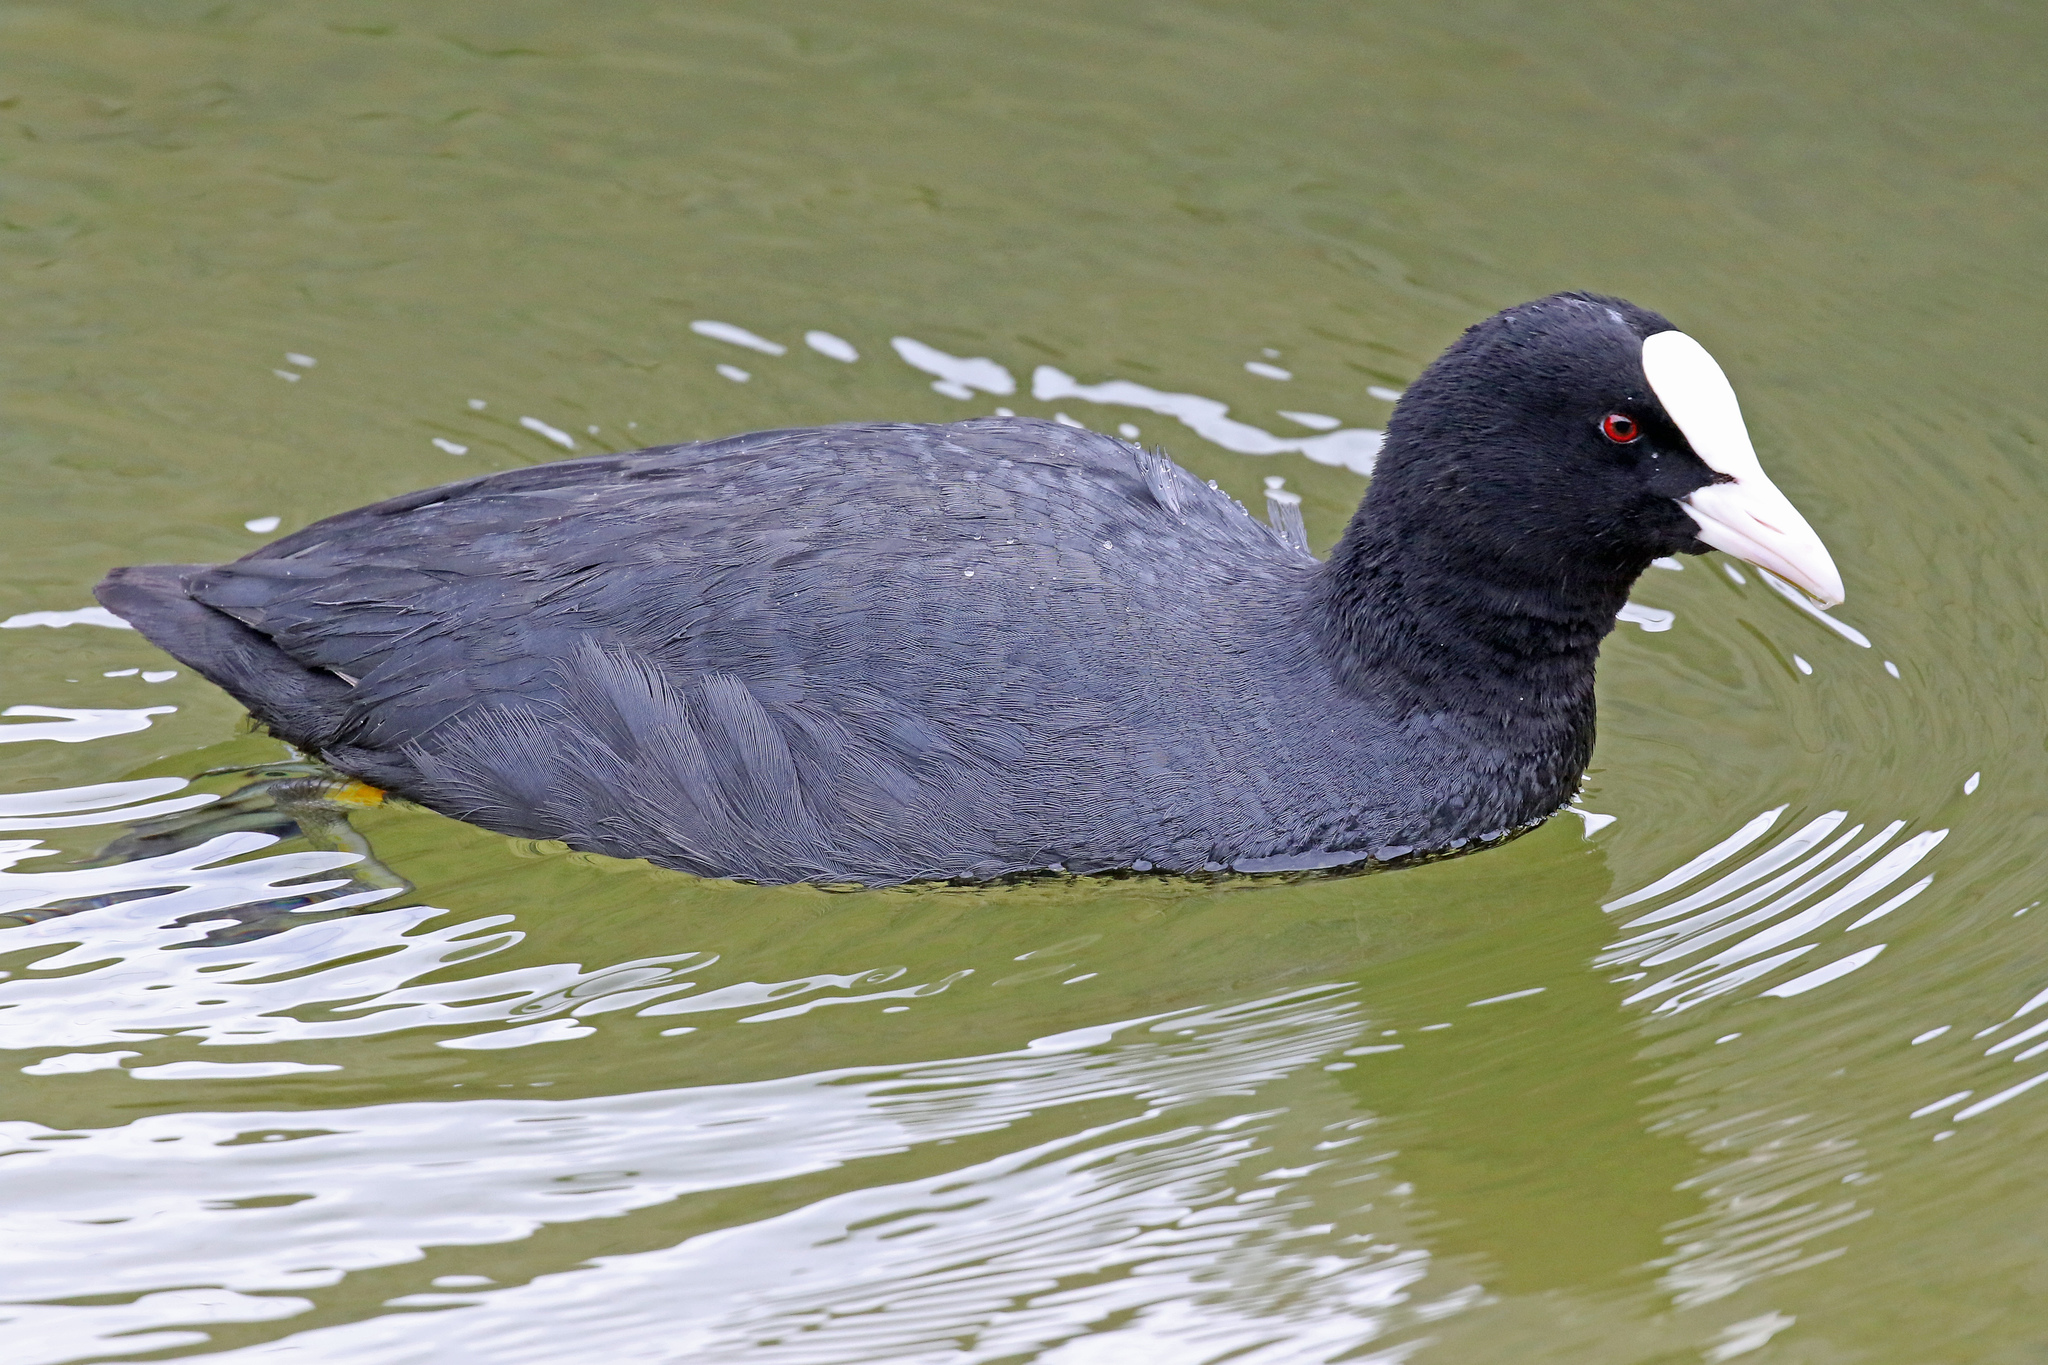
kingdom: Animalia
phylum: Chordata
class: Aves
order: Gruiformes
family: Rallidae
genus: Fulica
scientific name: Fulica atra
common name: Eurasian coot
